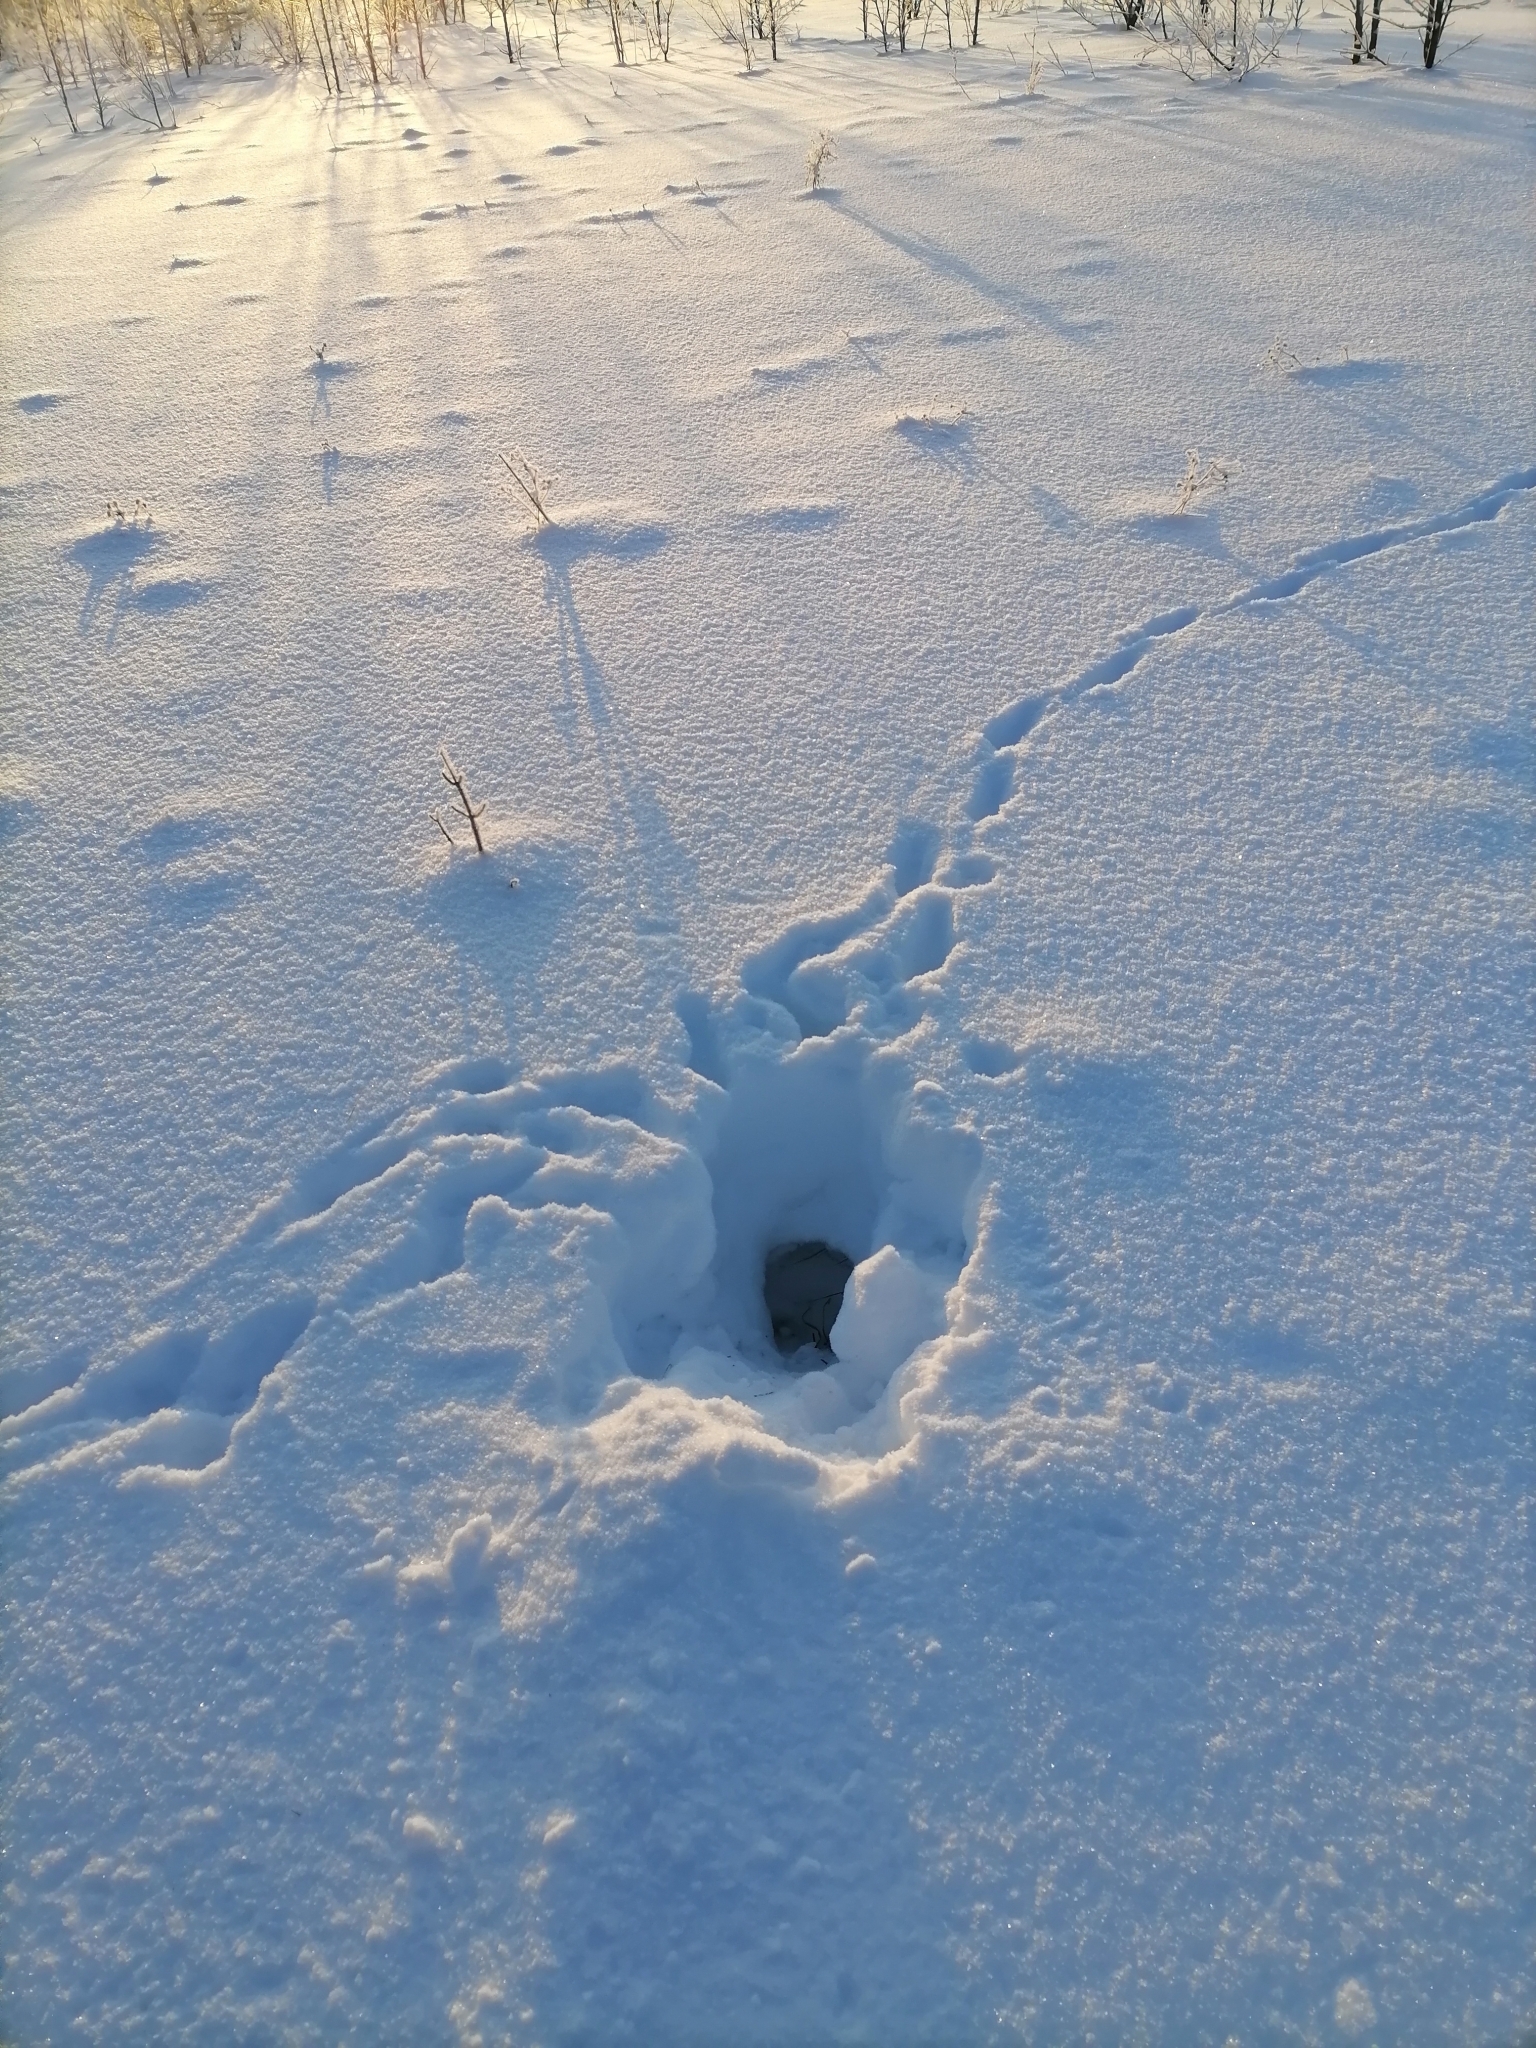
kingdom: Animalia
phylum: Chordata
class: Mammalia
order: Carnivora
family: Canidae
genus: Vulpes
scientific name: Vulpes vulpes
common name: Red fox
